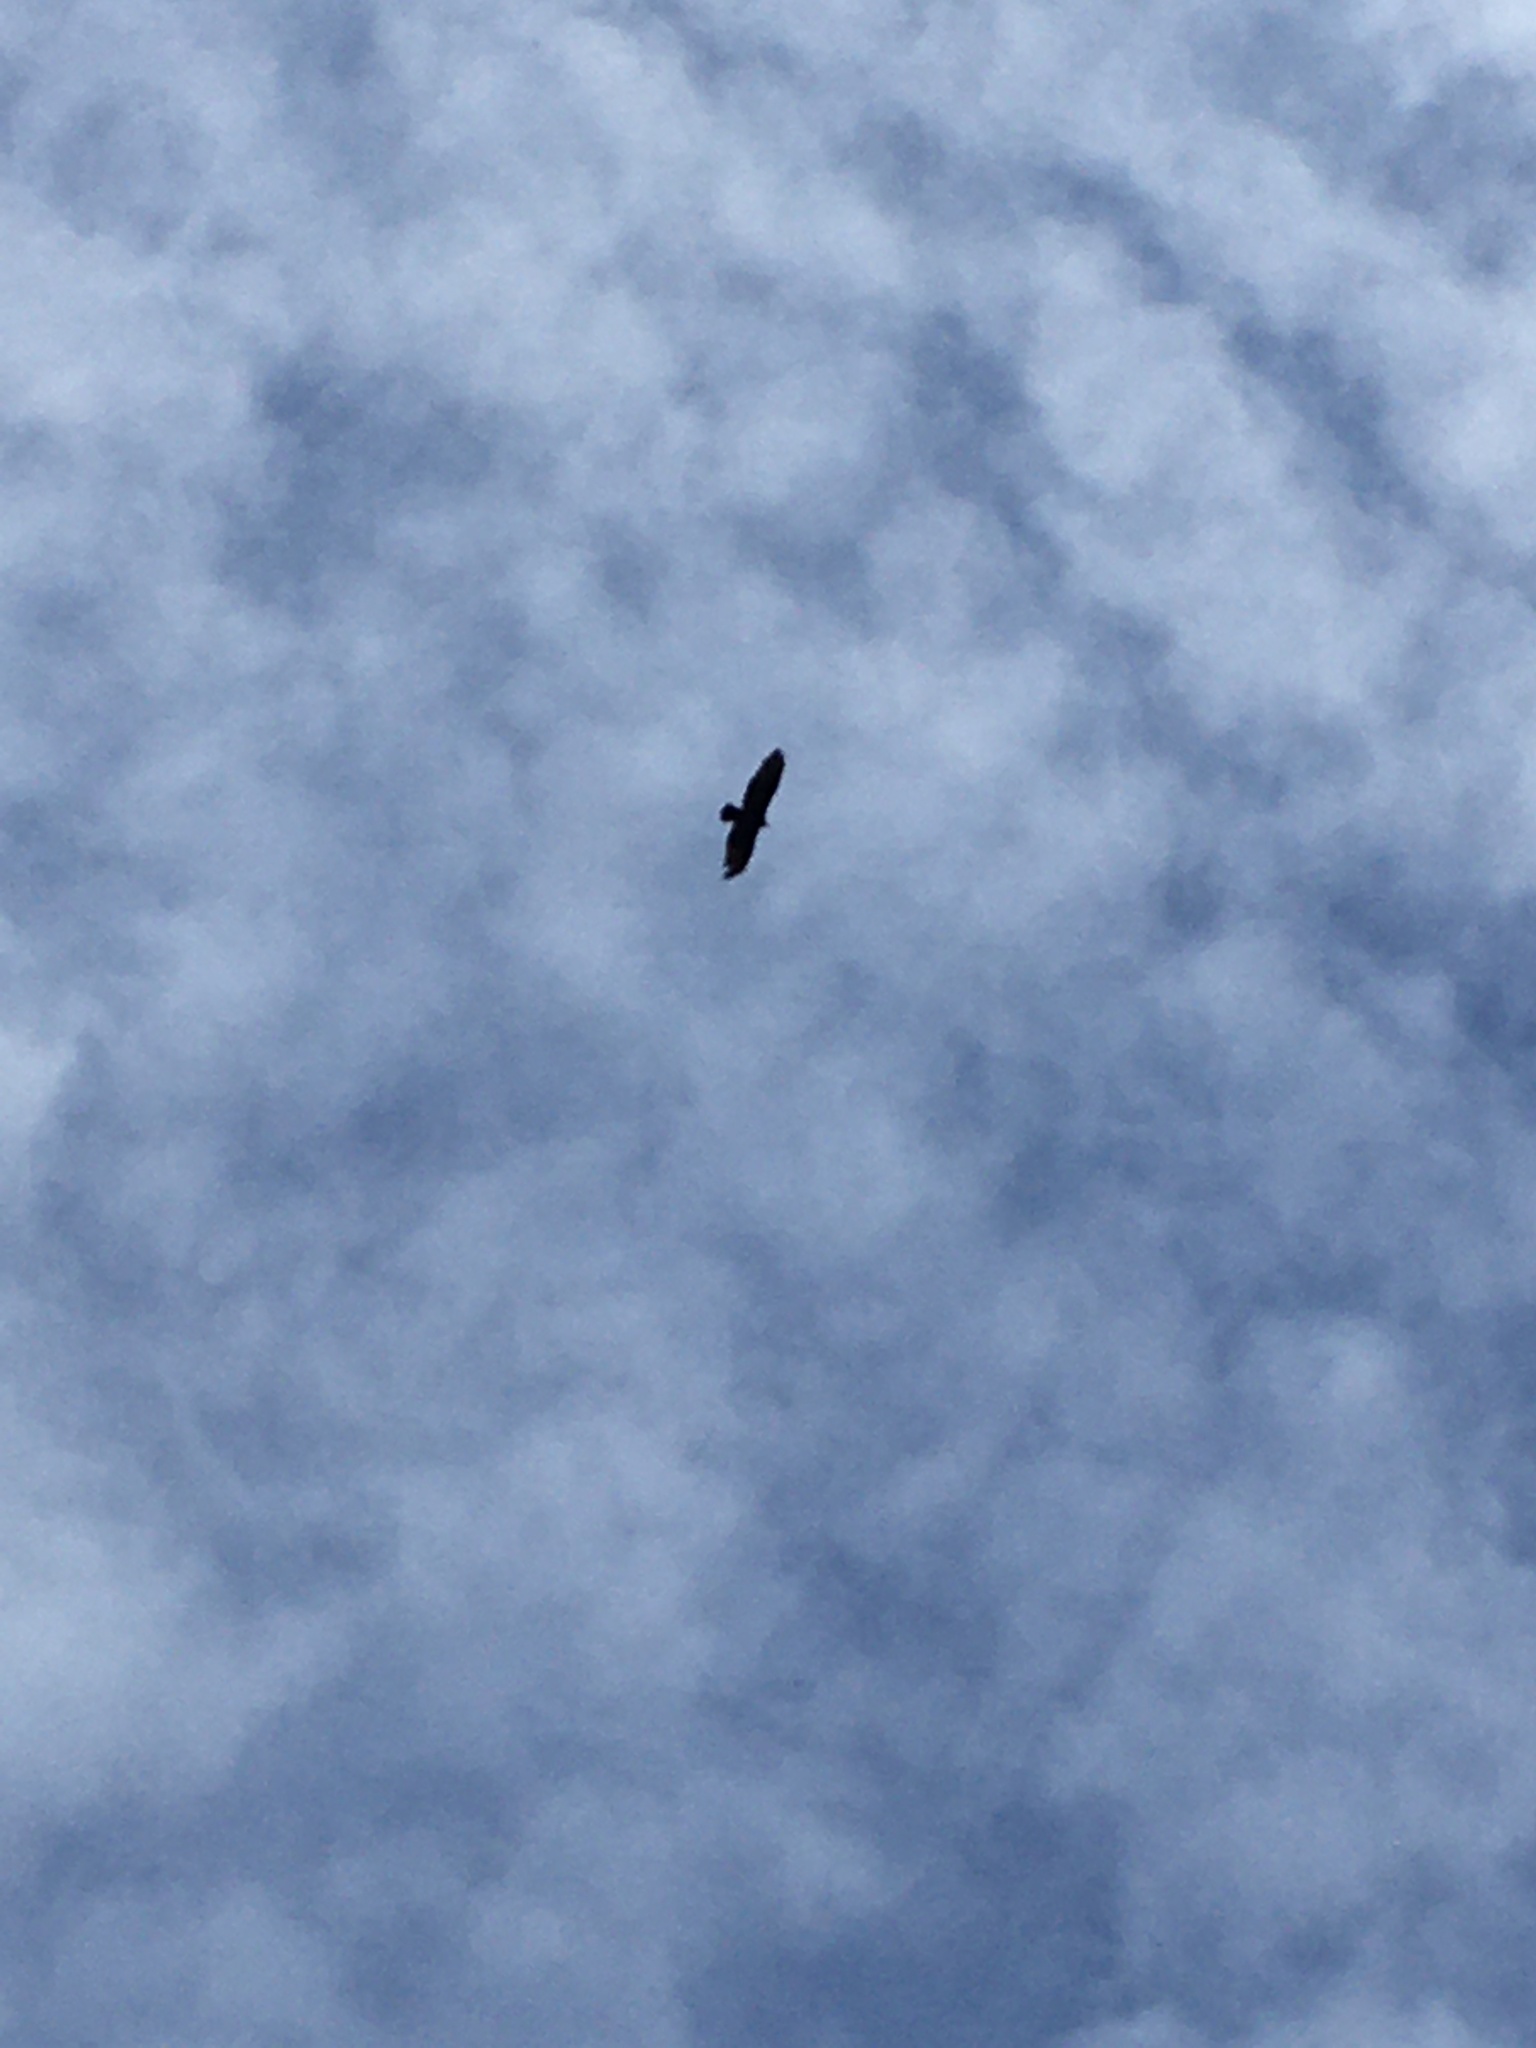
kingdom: Animalia
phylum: Chordata
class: Aves
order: Accipitriformes
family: Cathartidae
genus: Cathartes
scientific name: Cathartes aura
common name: Turkey vulture
